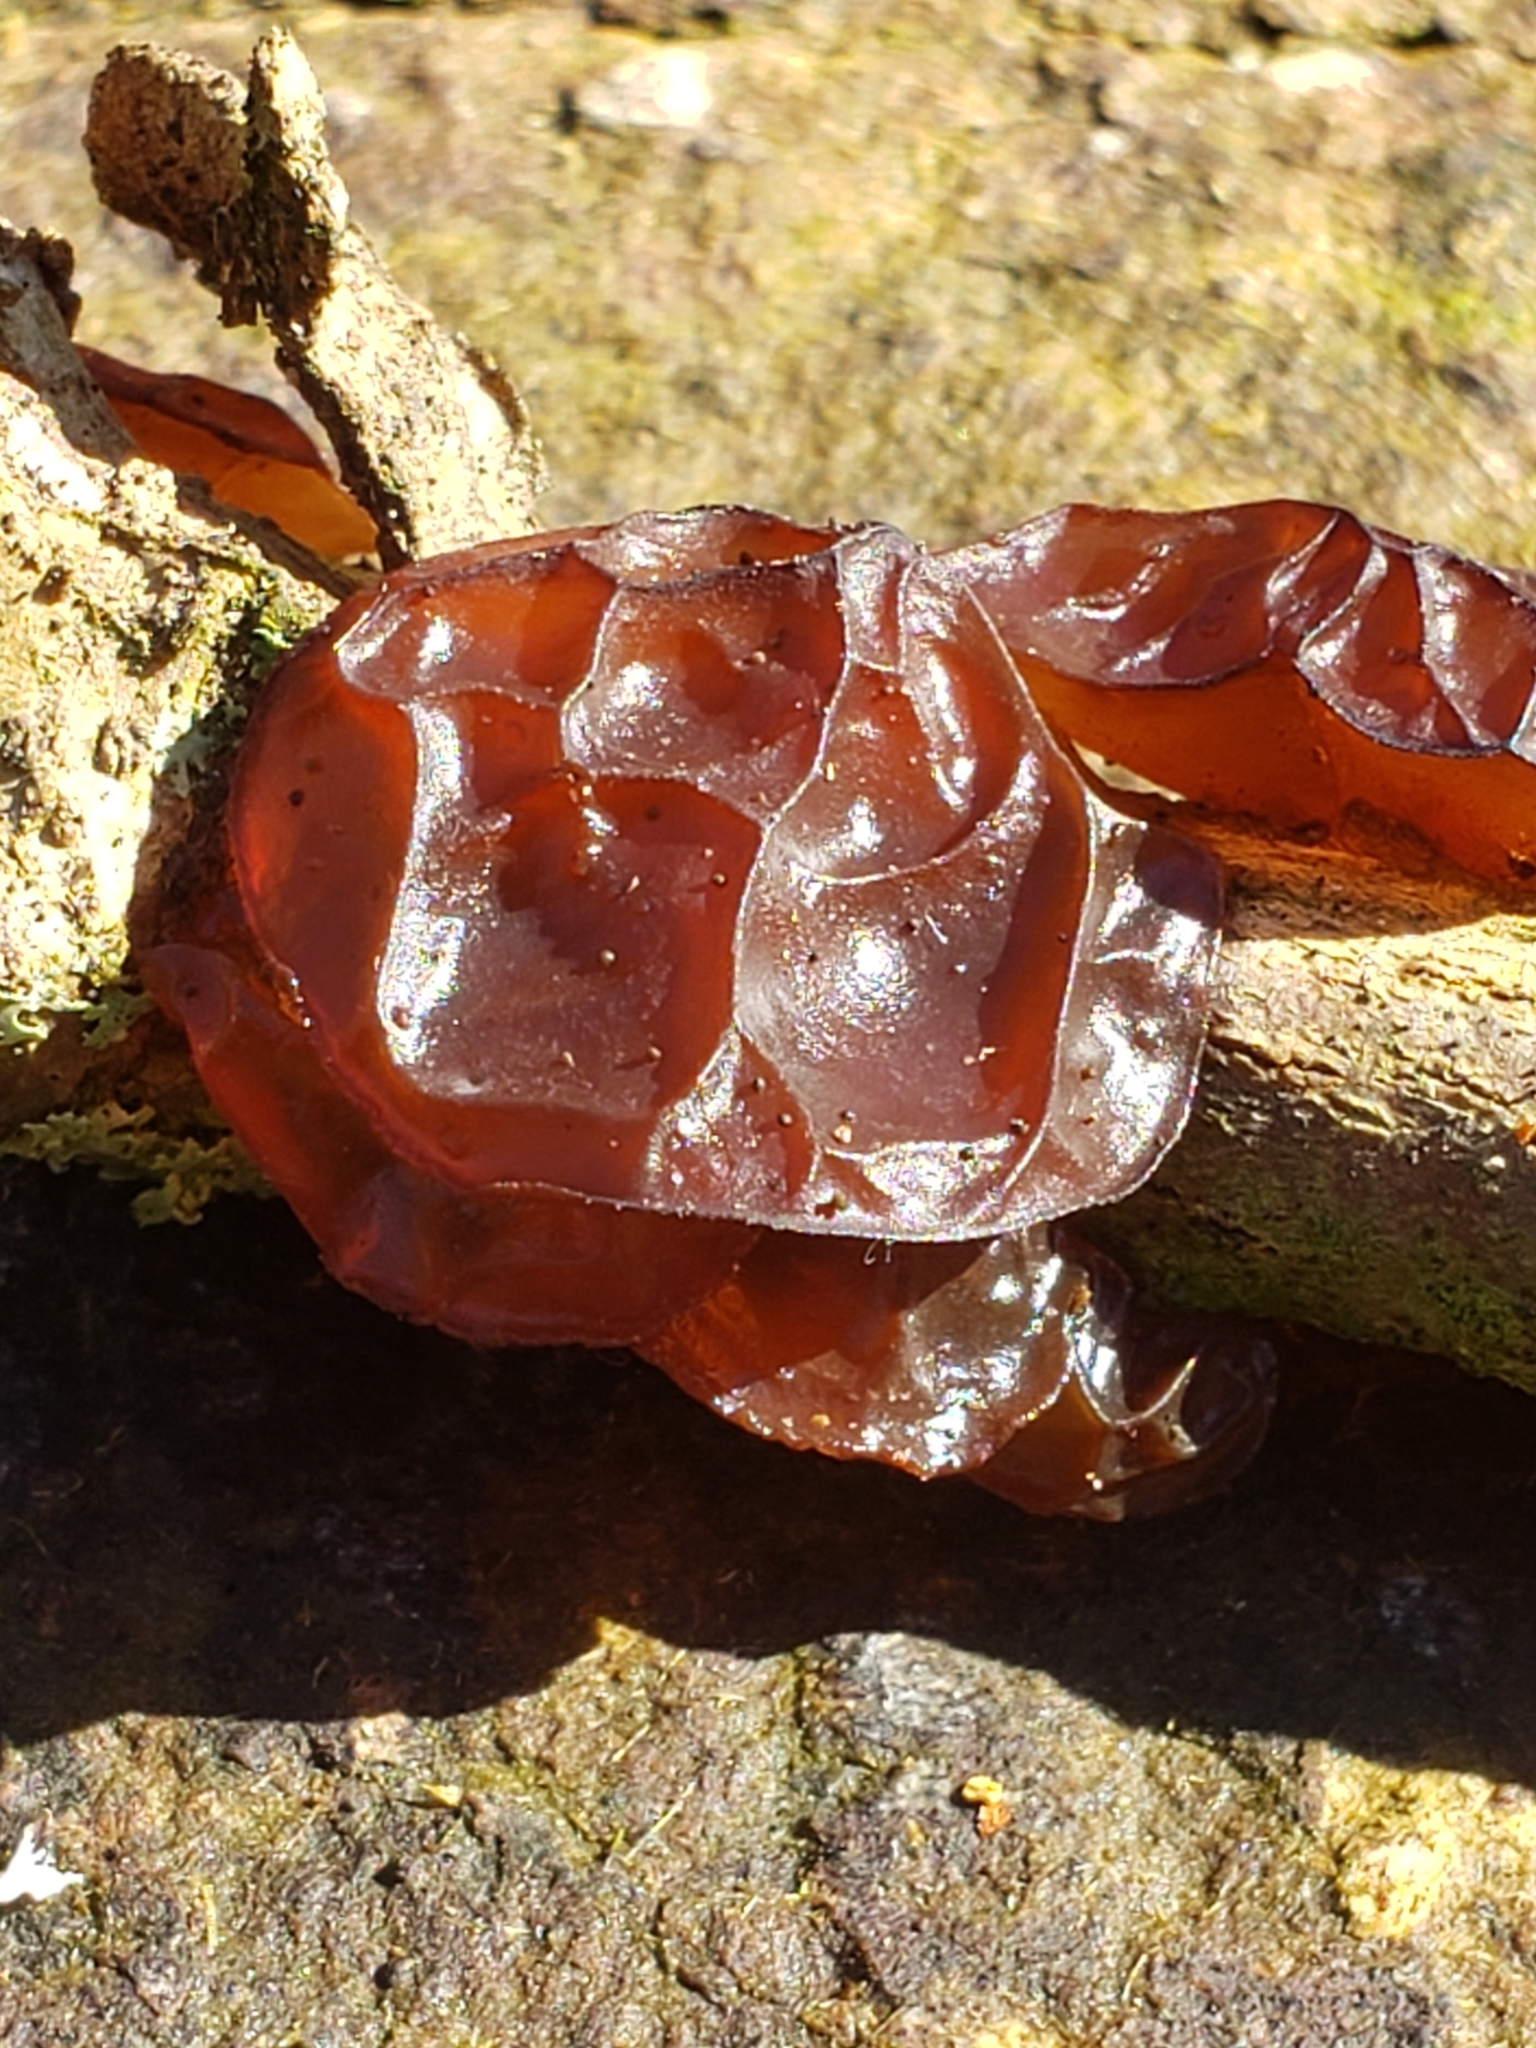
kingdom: Fungi
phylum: Basidiomycota
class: Agaricomycetes
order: Auriculariales
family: Auriculariaceae
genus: Exidia
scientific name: Exidia
